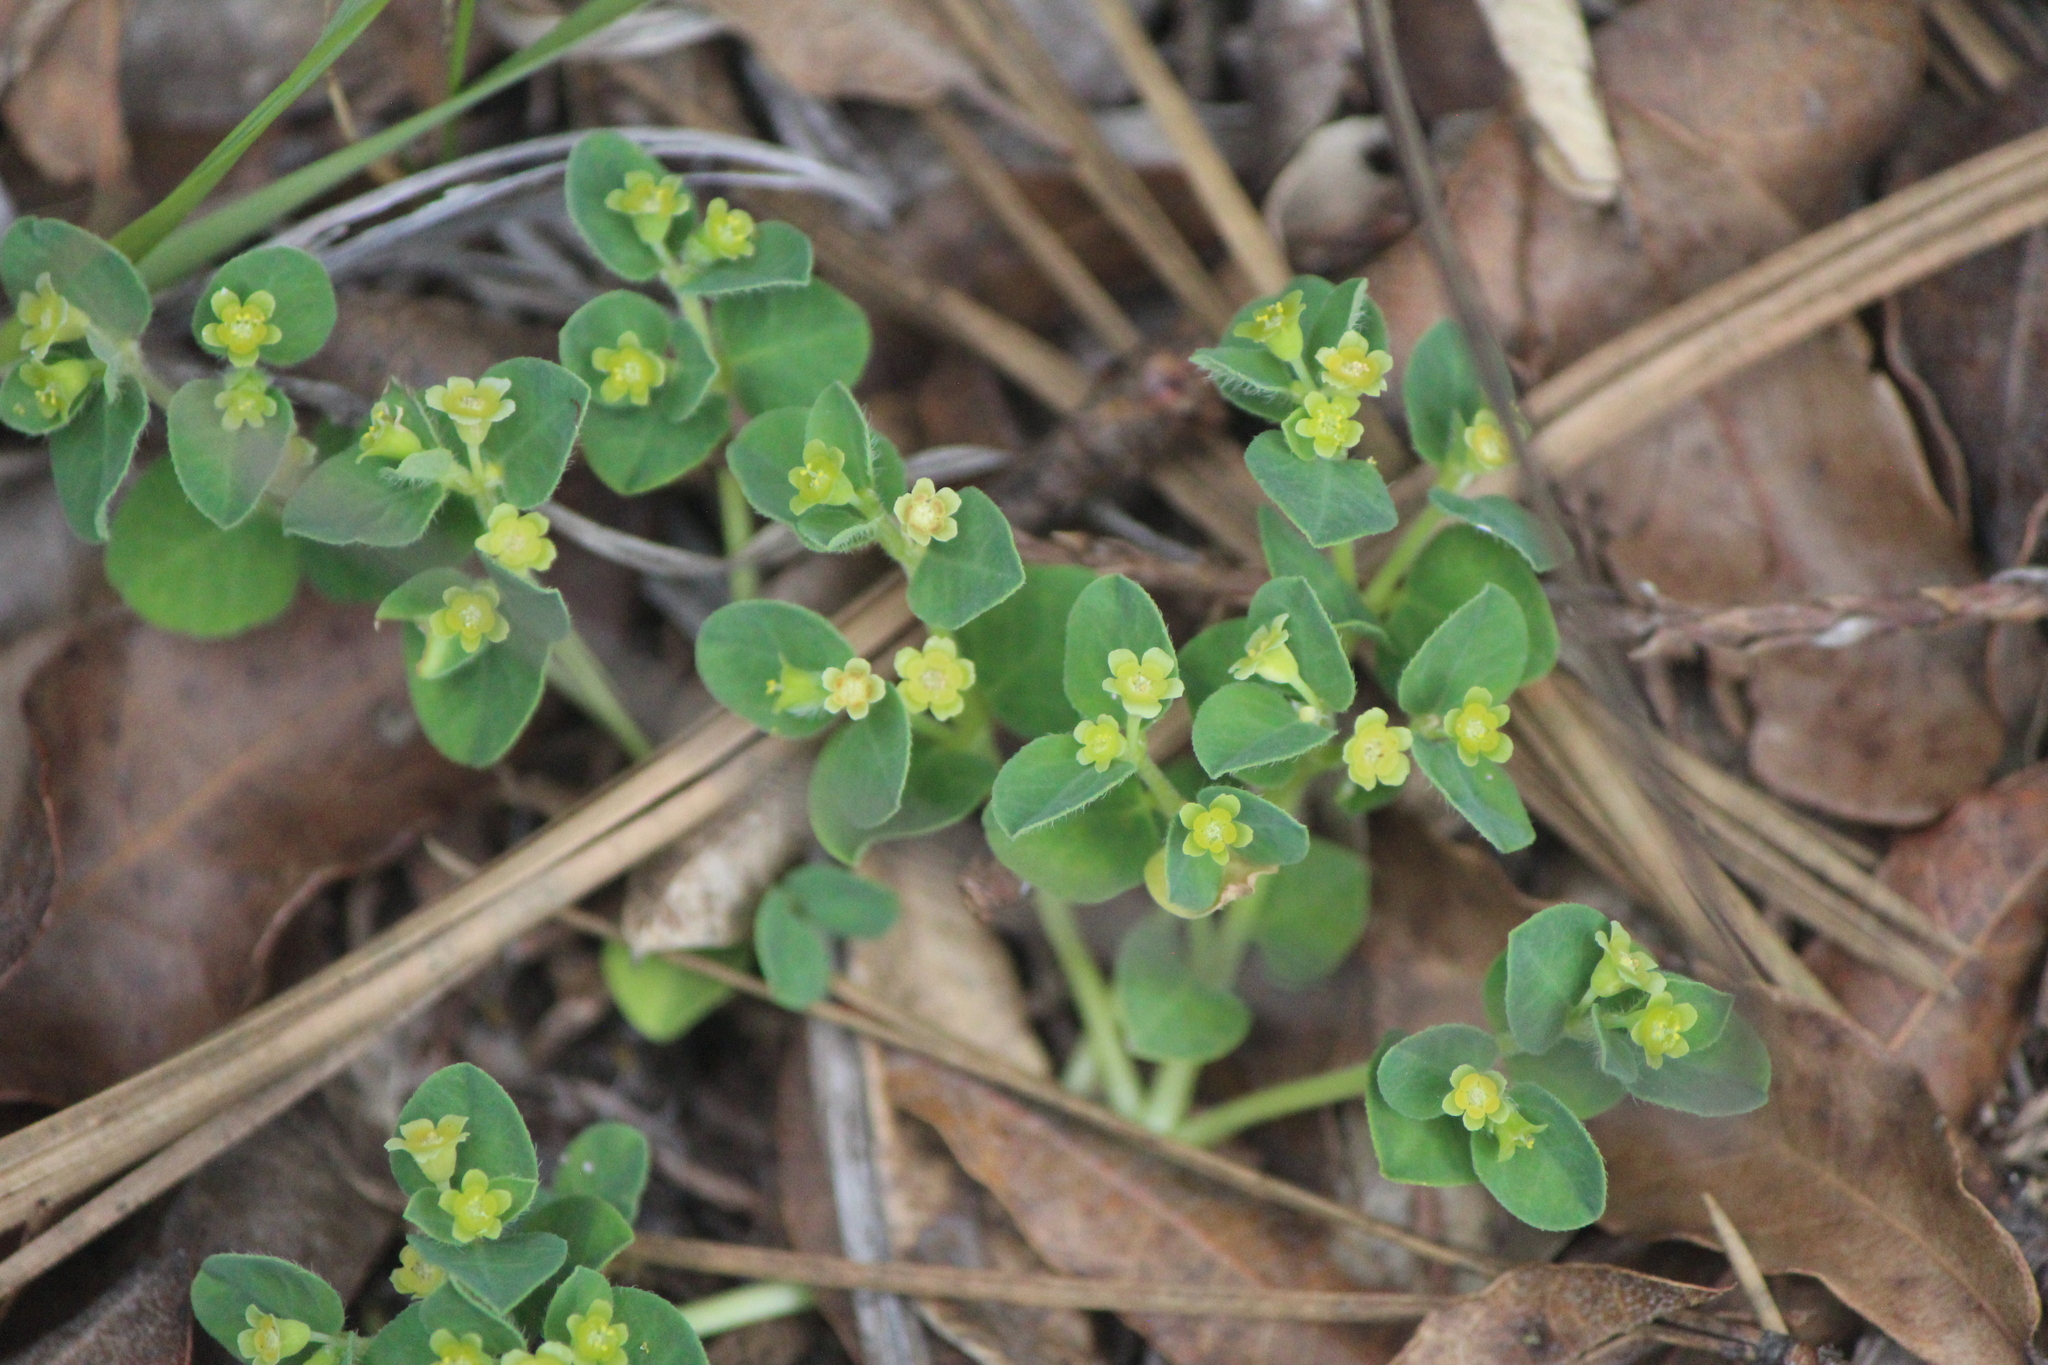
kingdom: Plantae
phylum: Tracheophyta
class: Magnoliopsida
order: Malpighiales
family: Euphorbiaceae
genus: Euphorbia
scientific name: Euphorbia macropus
